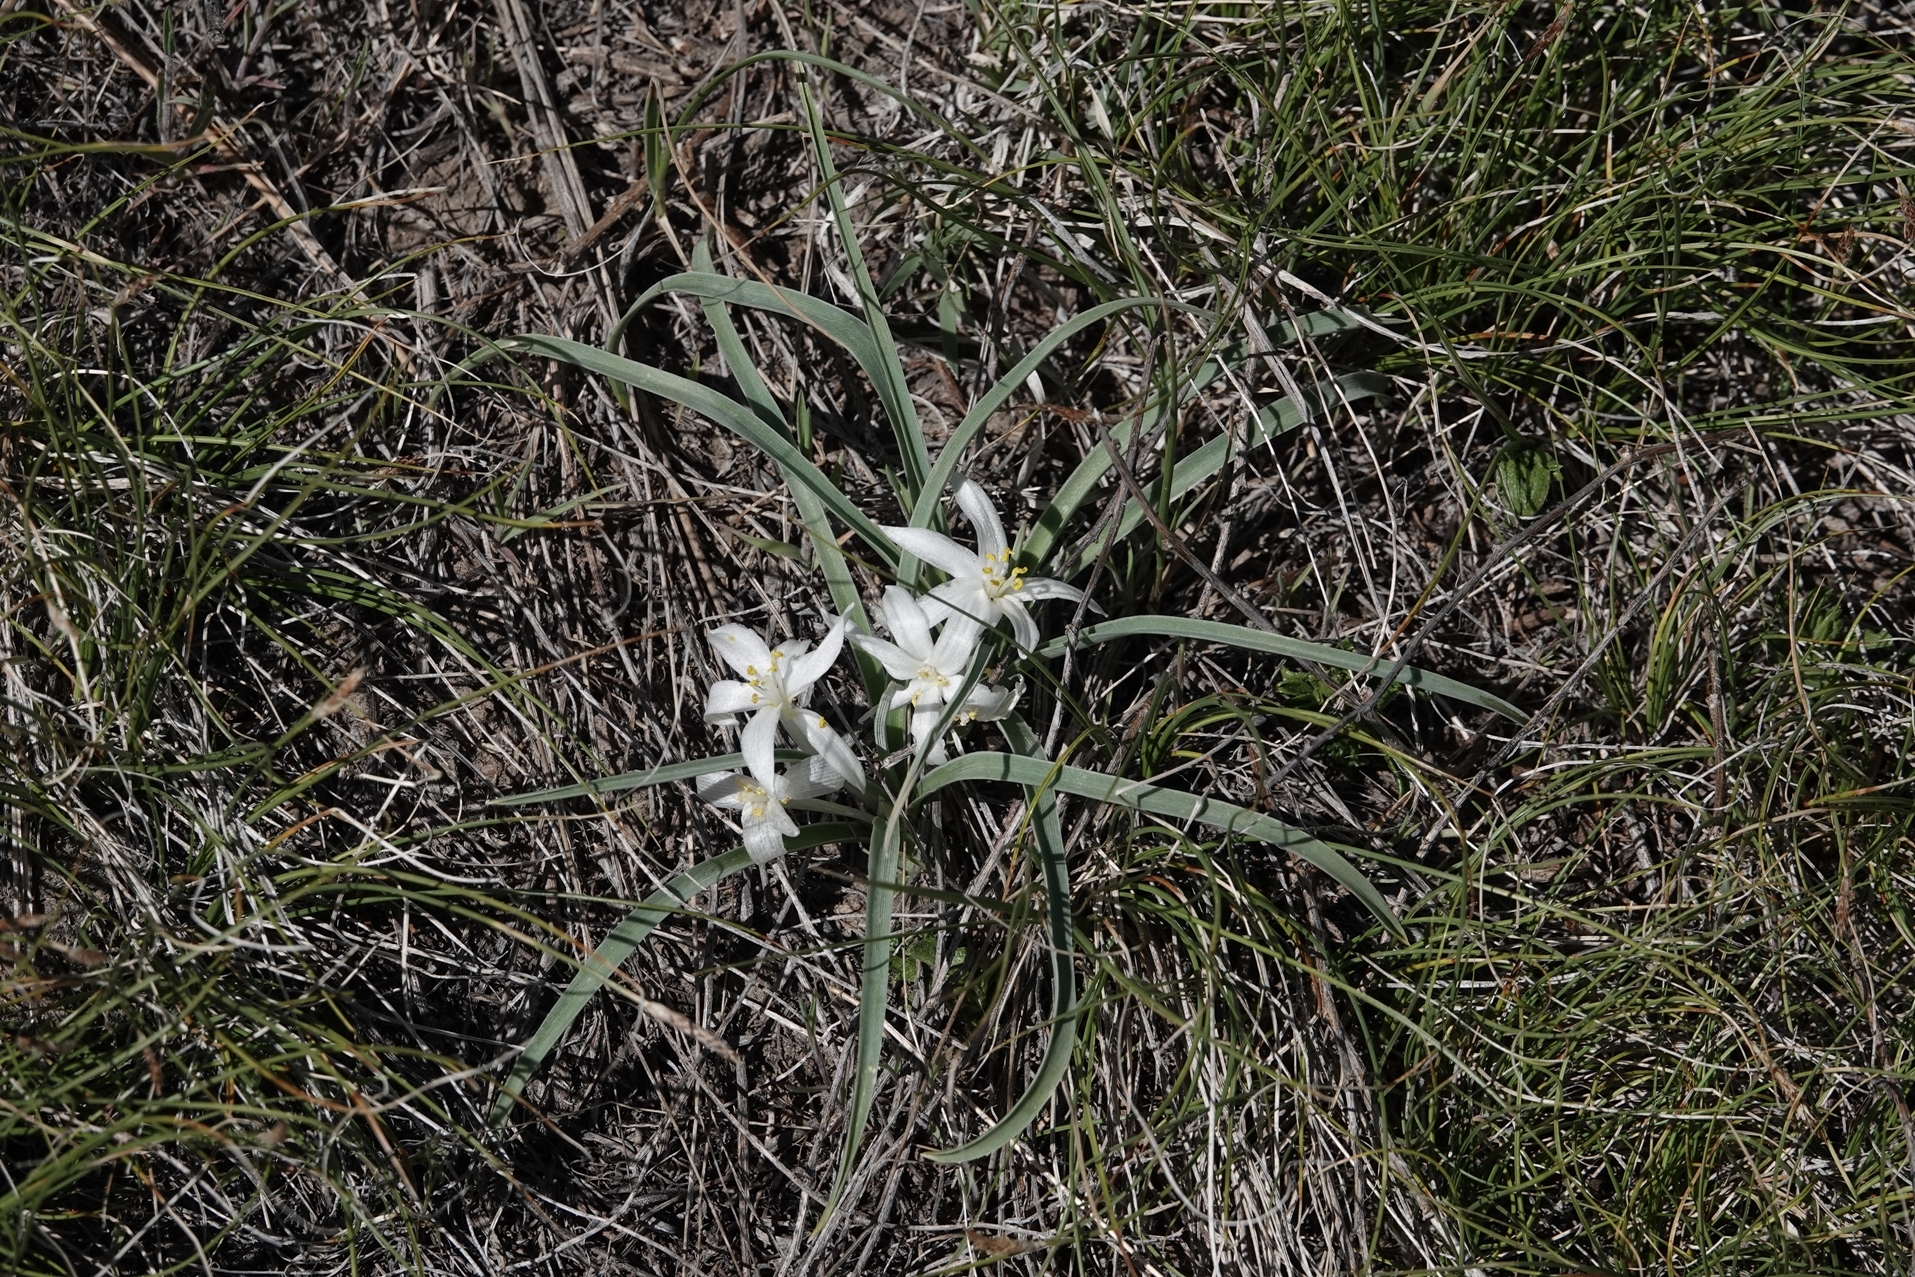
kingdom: Plantae
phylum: Tracheophyta
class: Liliopsida
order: Asparagales
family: Asparagaceae
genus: Leucocrinum
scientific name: Leucocrinum montanum
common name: Mountain-lily
